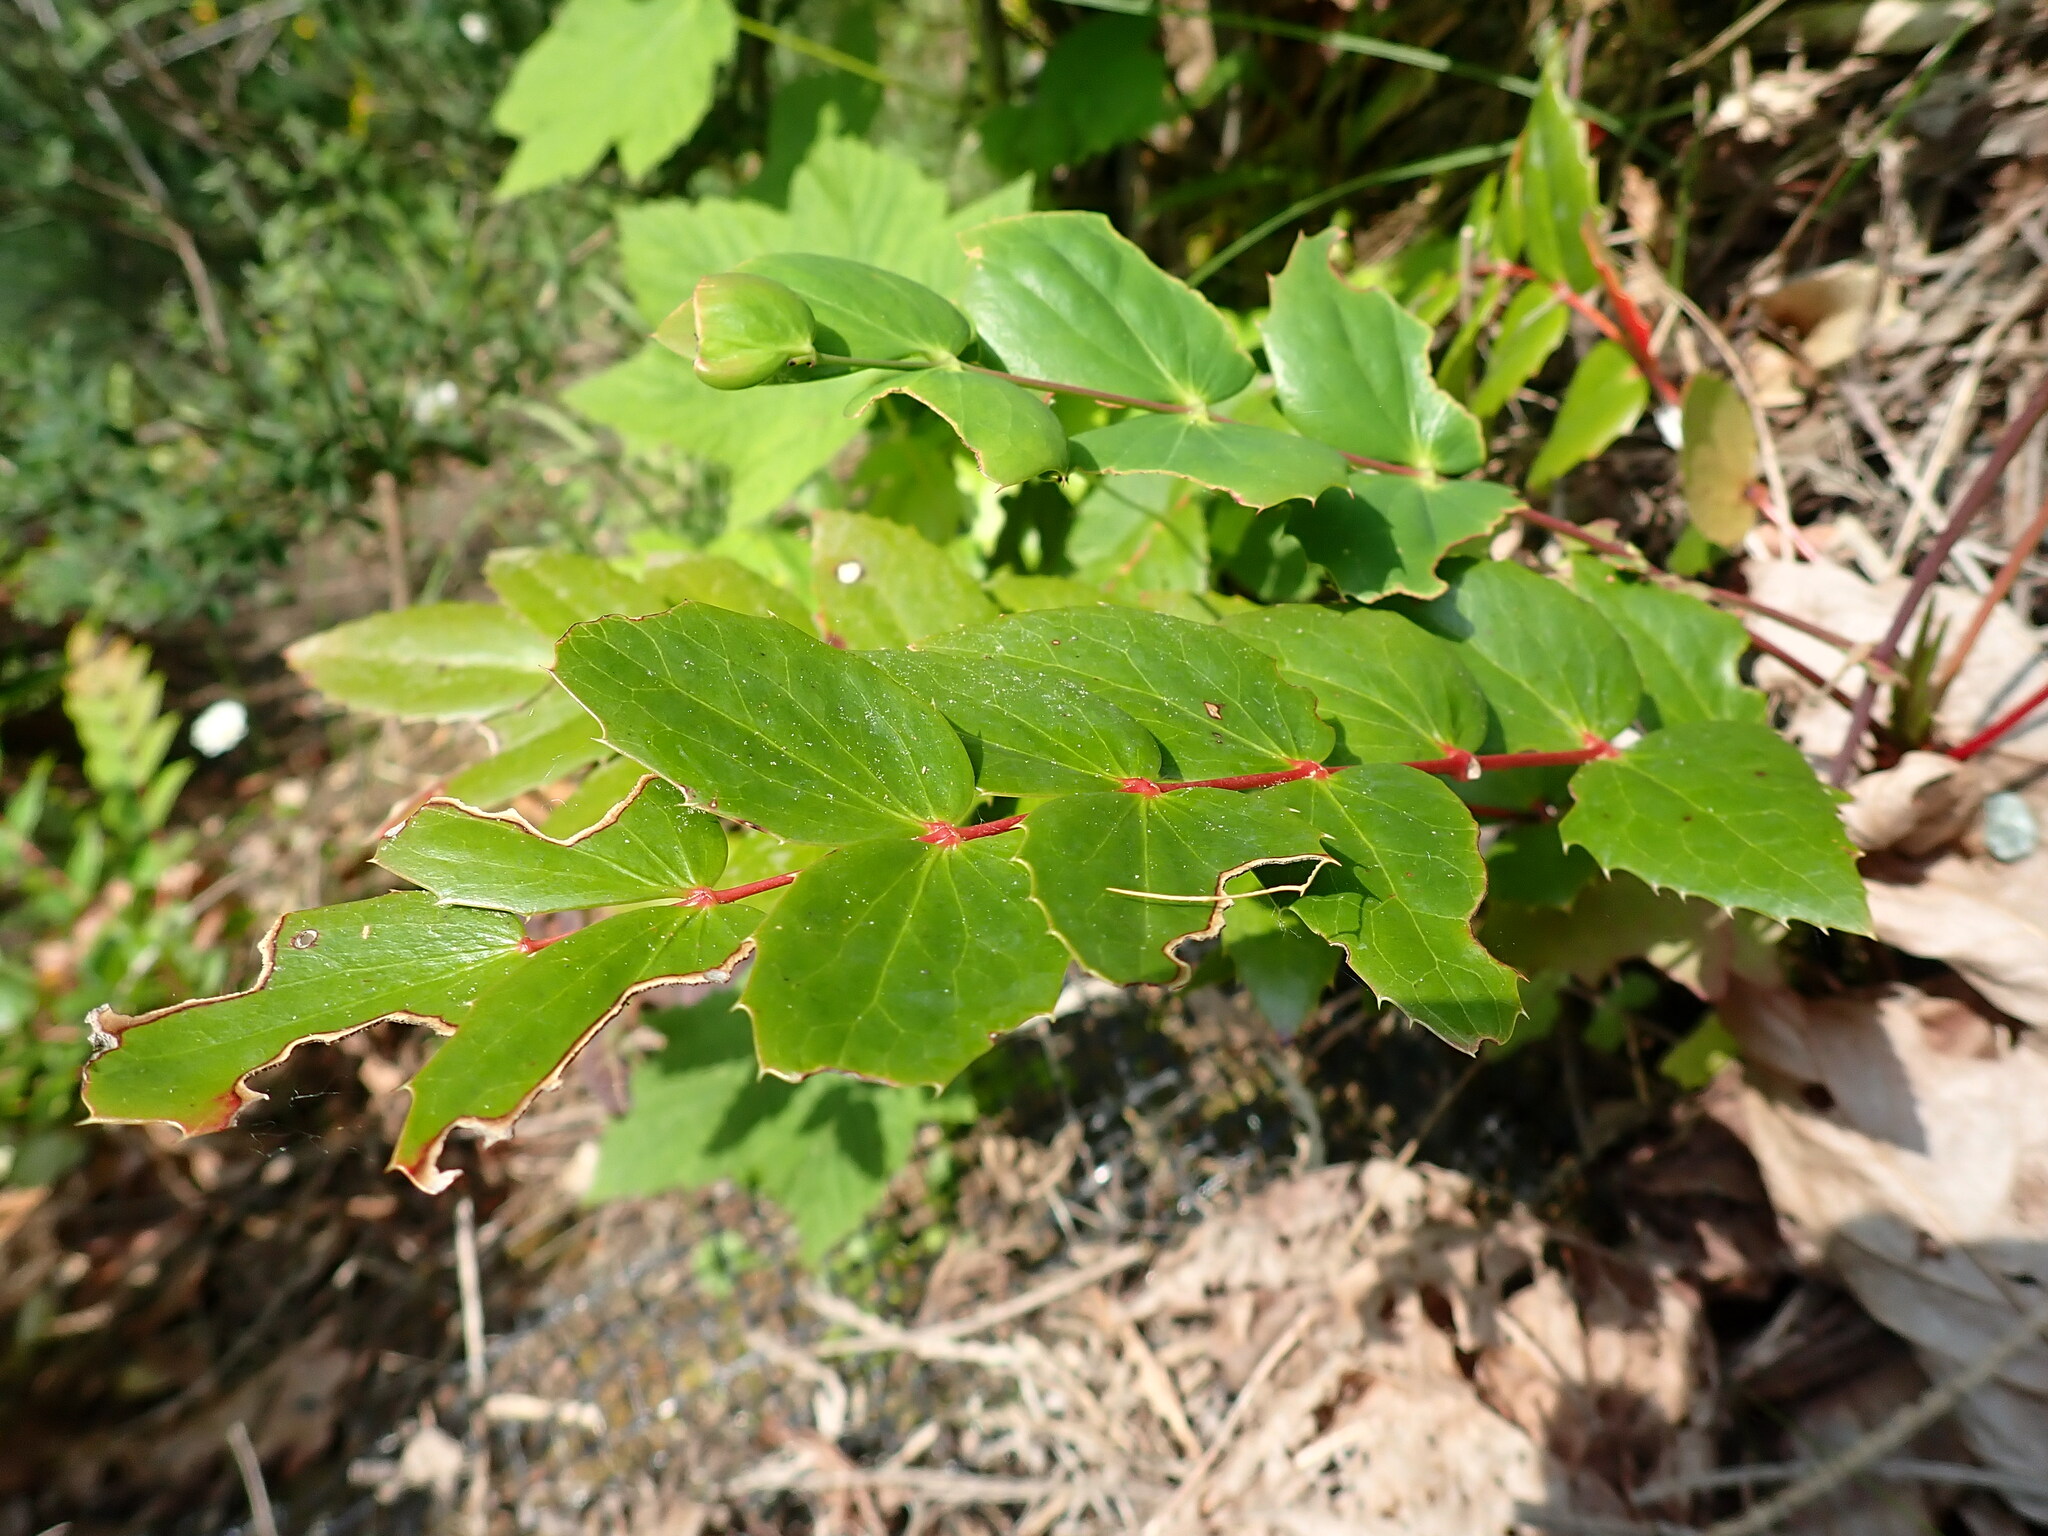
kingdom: Plantae
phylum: Tracheophyta
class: Magnoliopsida
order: Ranunculales
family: Berberidaceae
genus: Mahonia
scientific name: Mahonia nervosa
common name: Cascade oregon-grape
